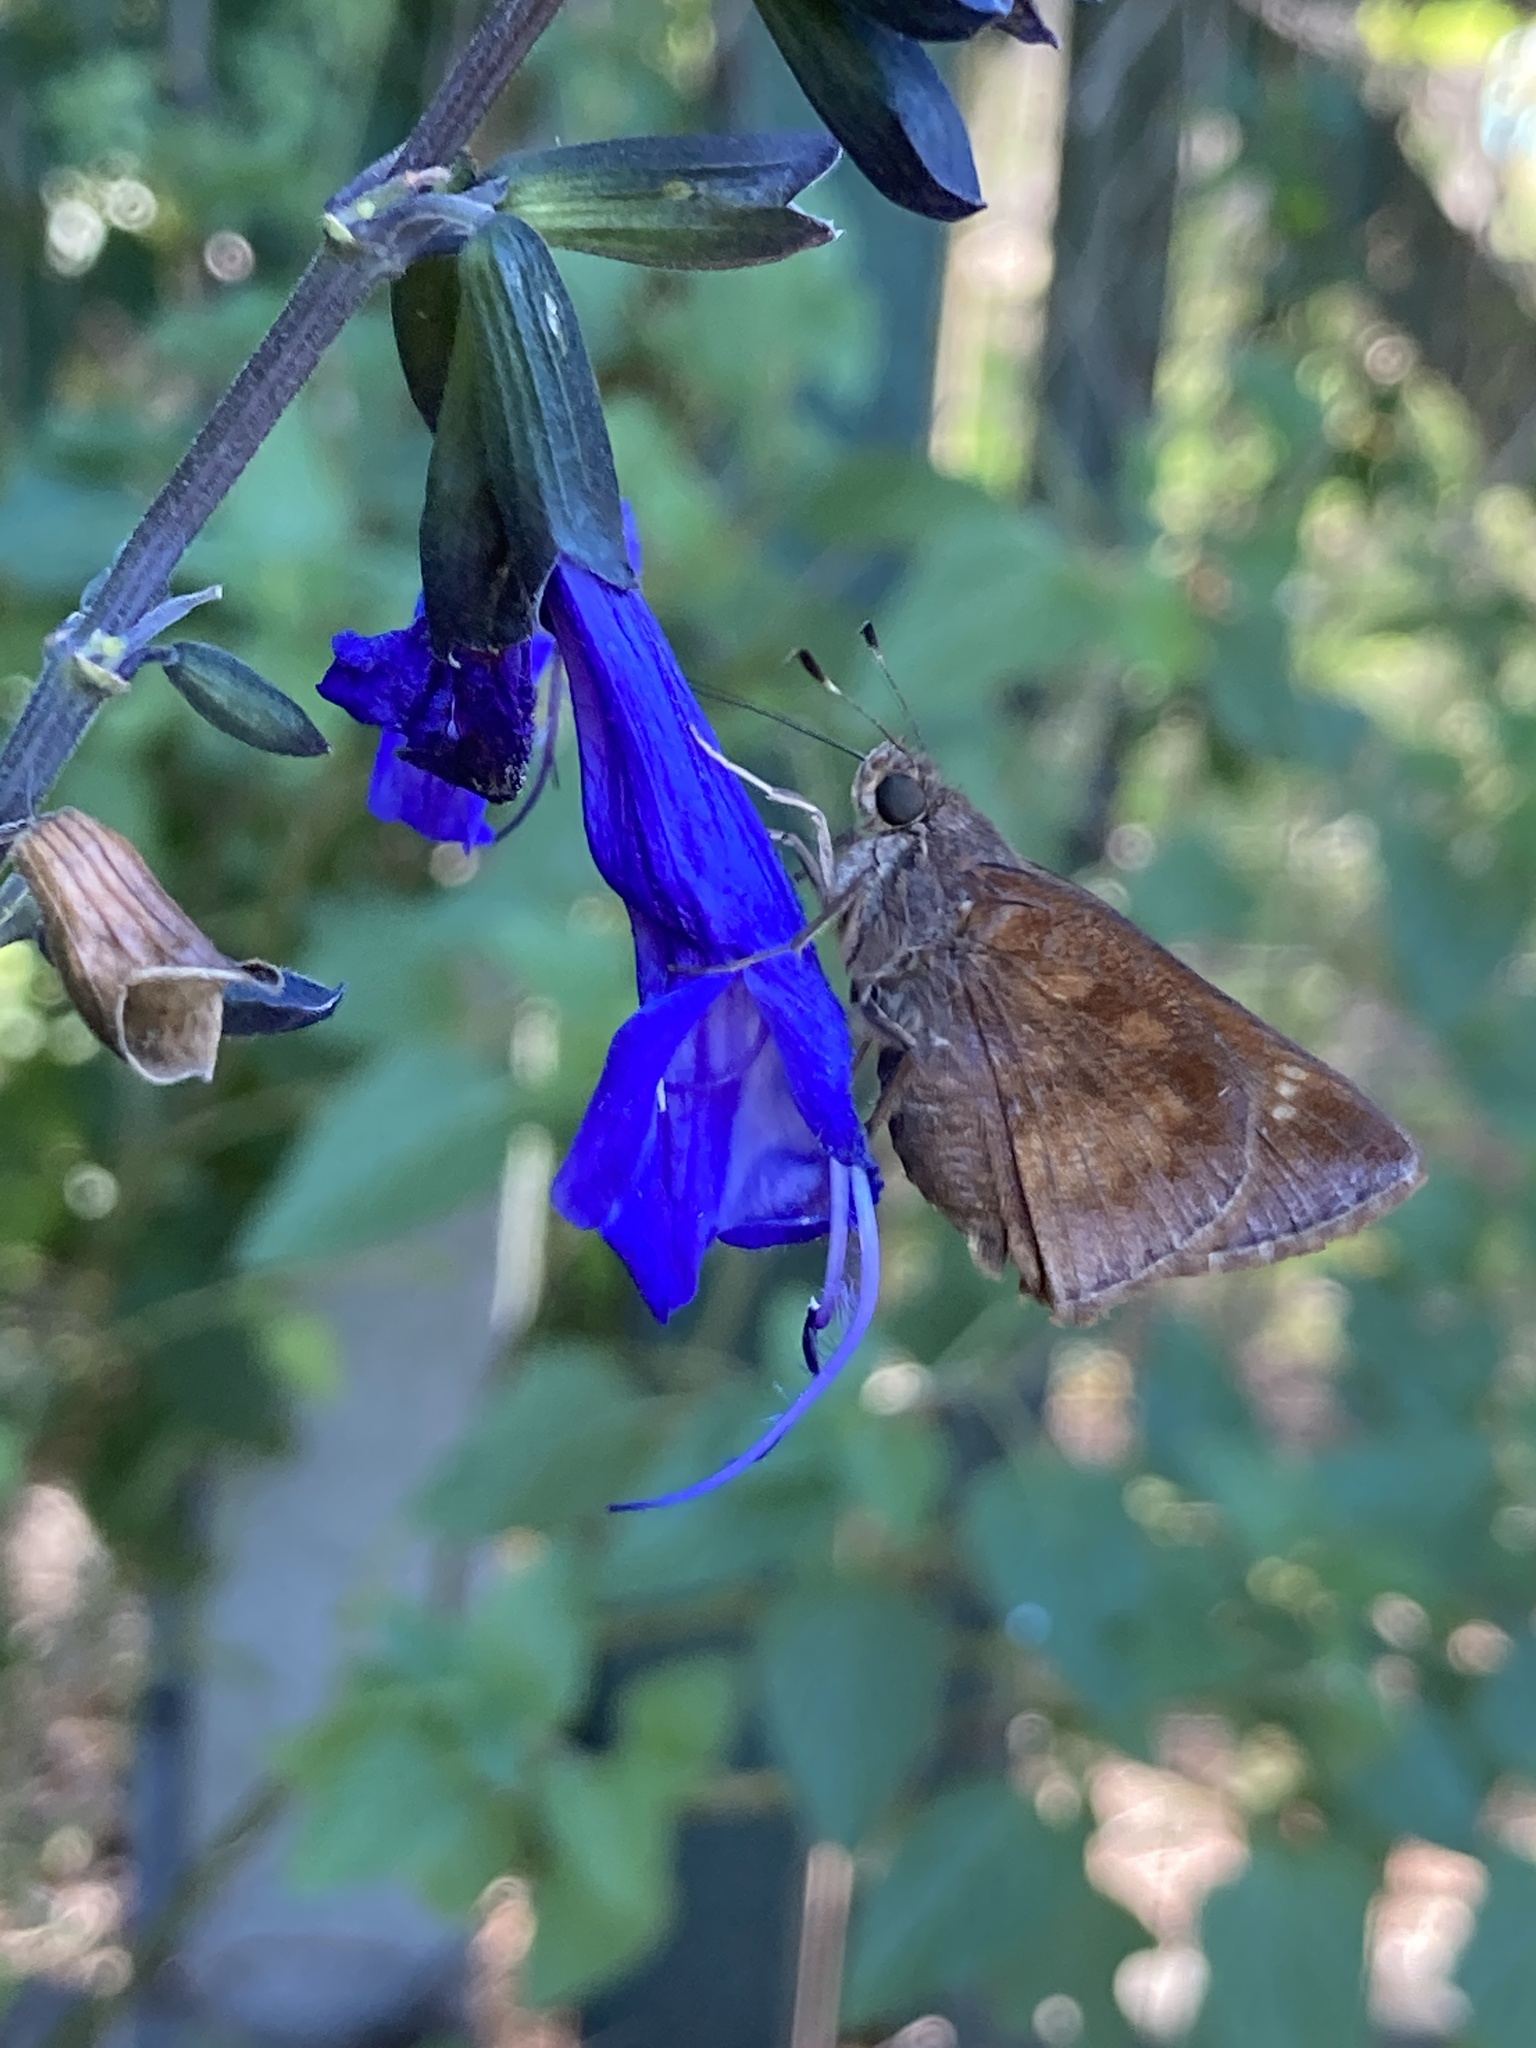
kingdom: Animalia
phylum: Arthropoda
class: Insecta
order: Lepidoptera
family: Hesperiidae
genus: Quinta
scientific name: Quinta cannae
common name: Canna skipper
